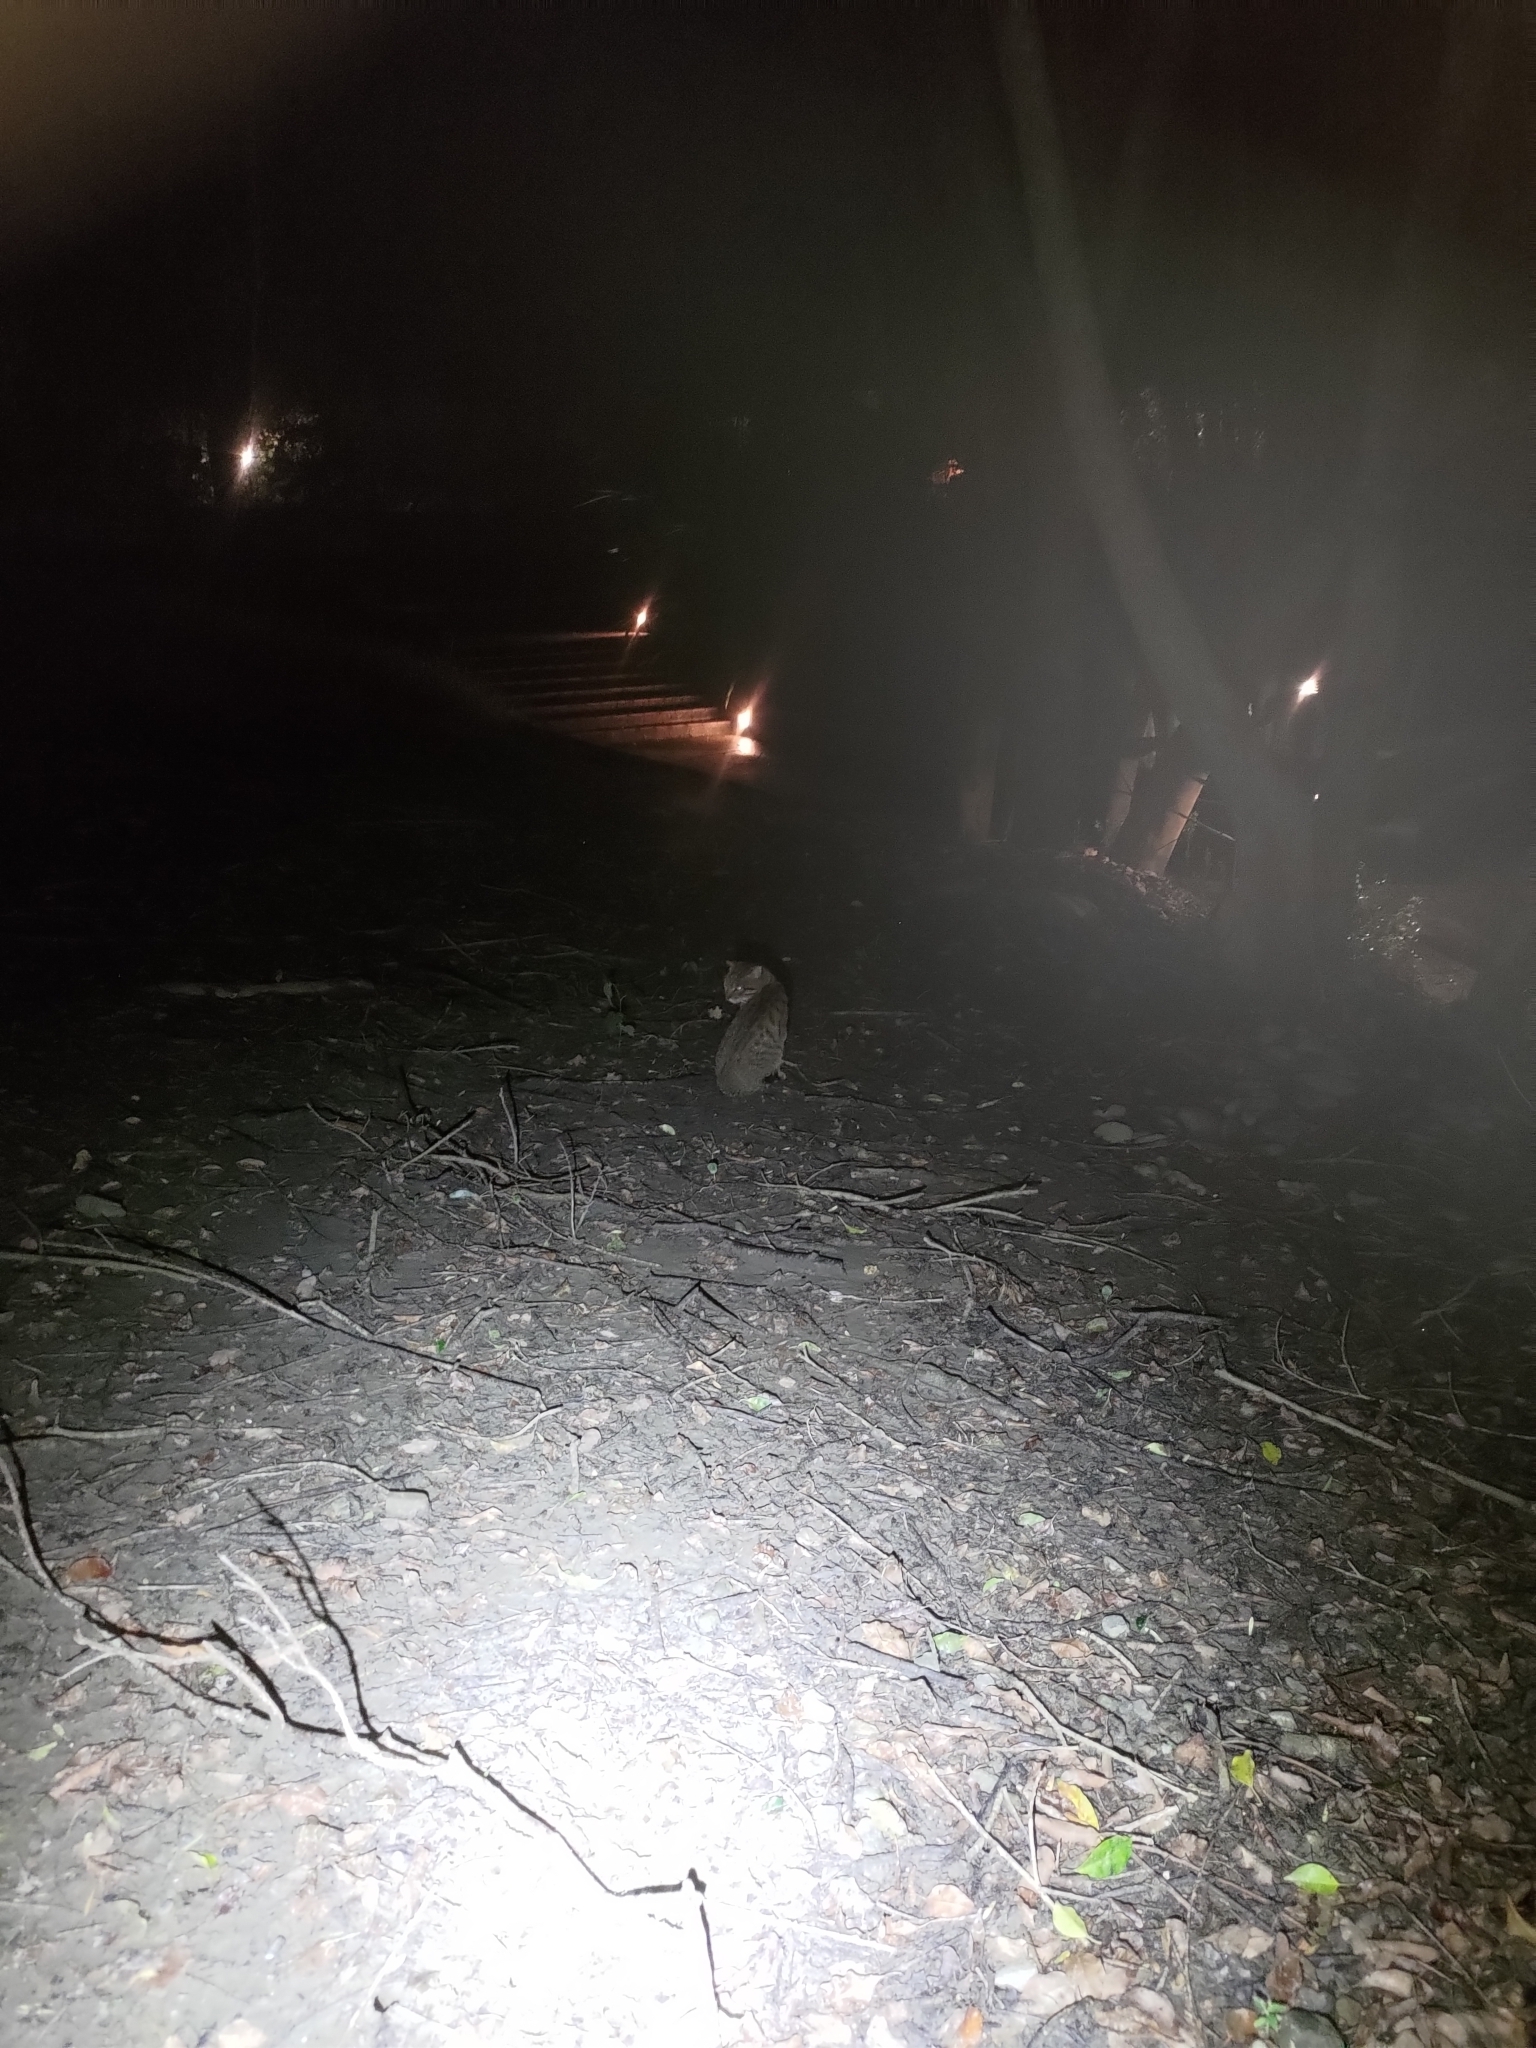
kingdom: Animalia
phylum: Chordata
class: Mammalia
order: Carnivora
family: Felidae
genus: Felis
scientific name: Felis catus
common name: Domestic cat
